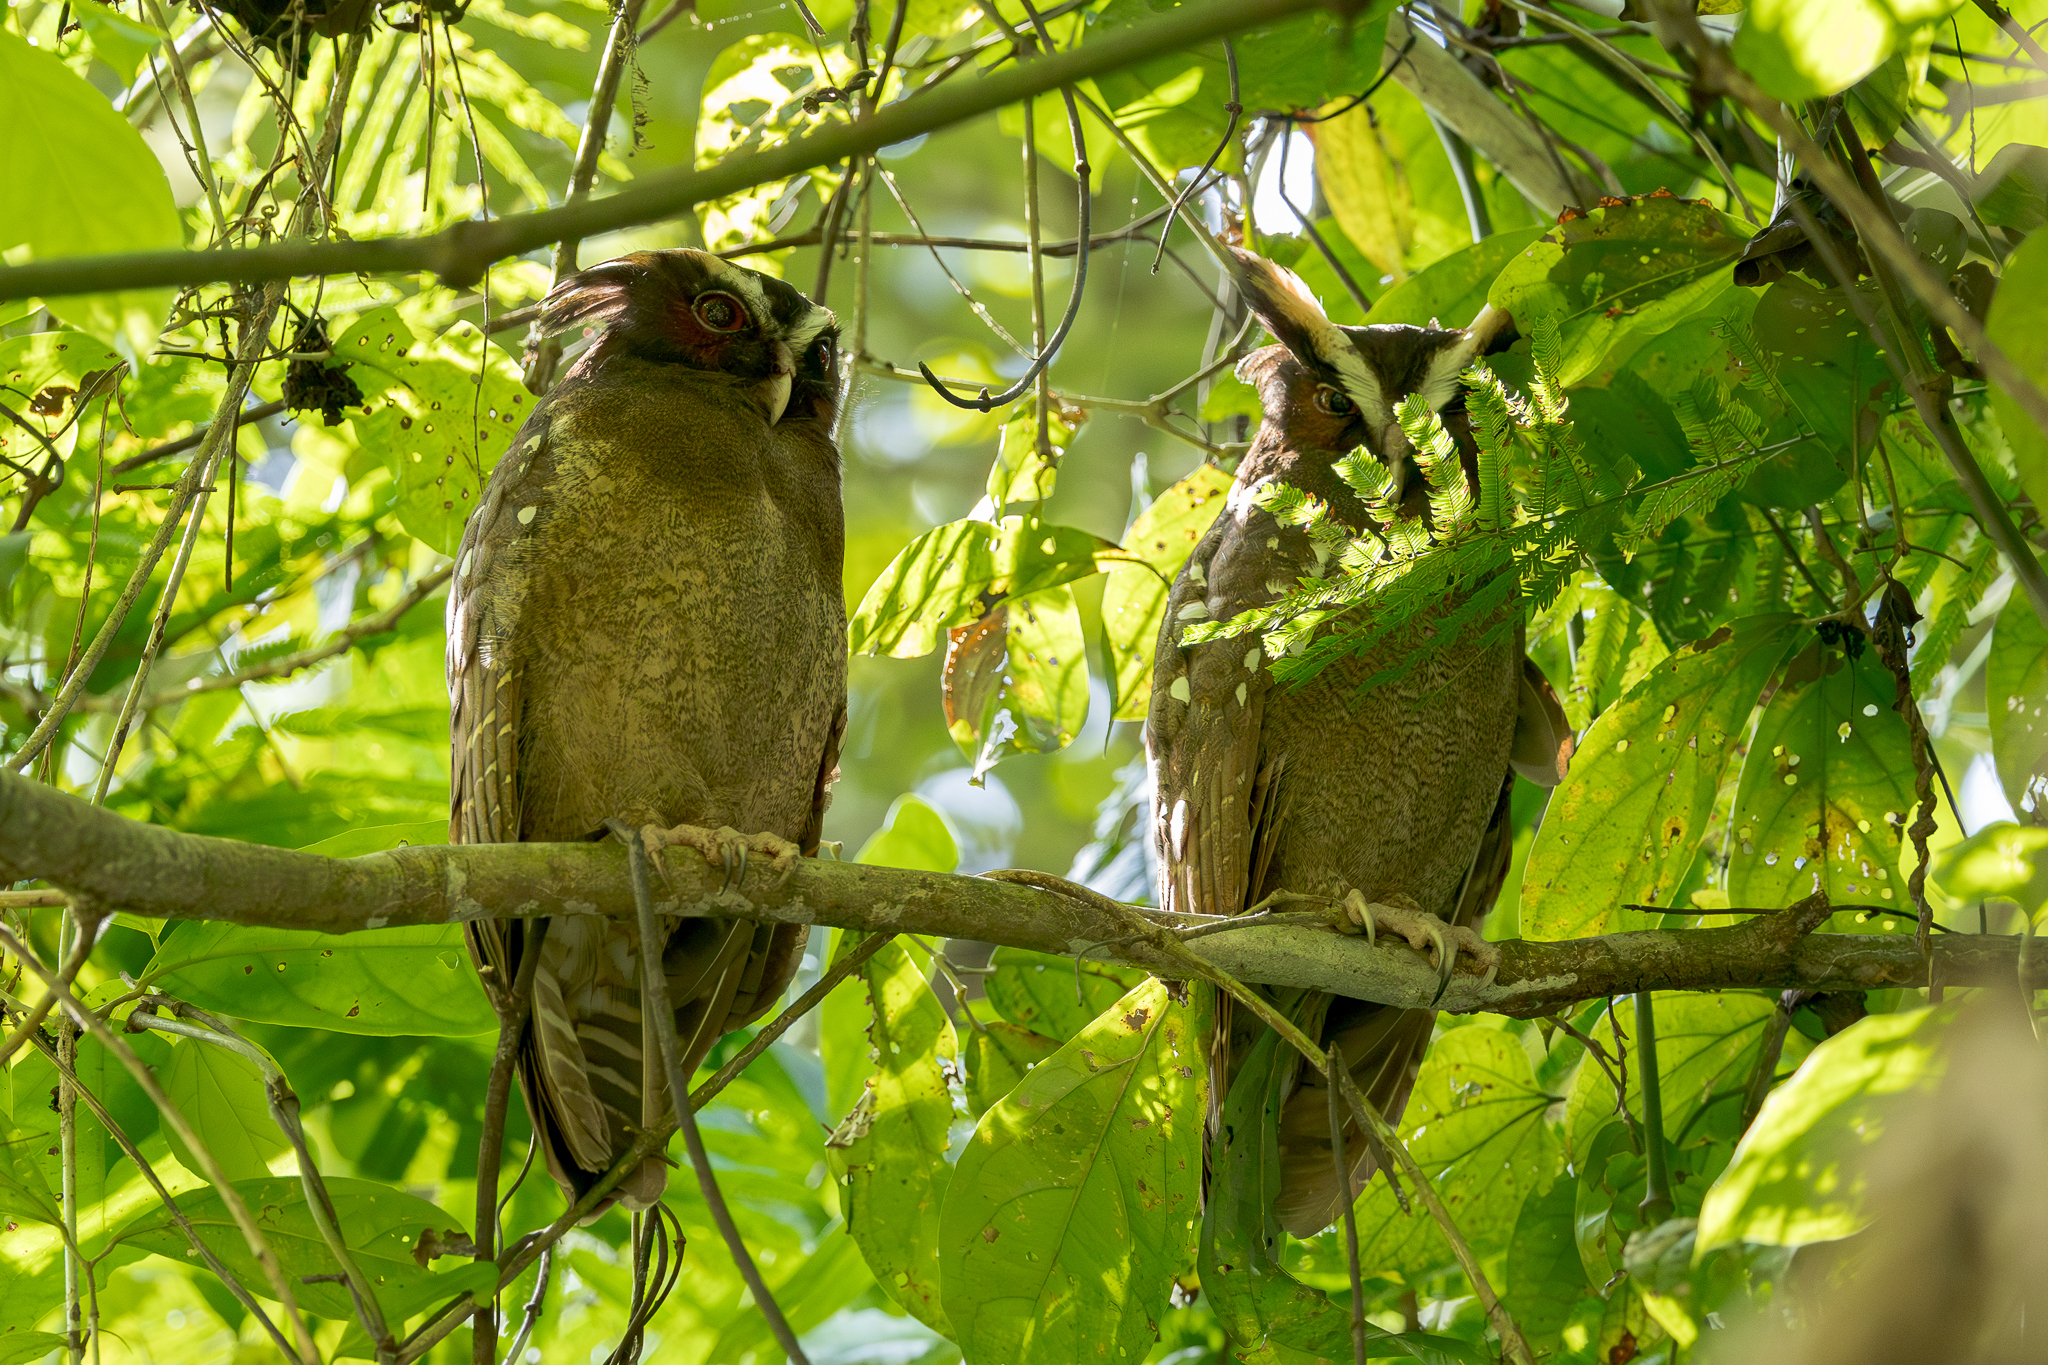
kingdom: Animalia
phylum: Chordata
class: Aves
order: Strigiformes
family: Strigidae
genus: Lophostrix
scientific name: Lophostrix cristata
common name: Crested owl
